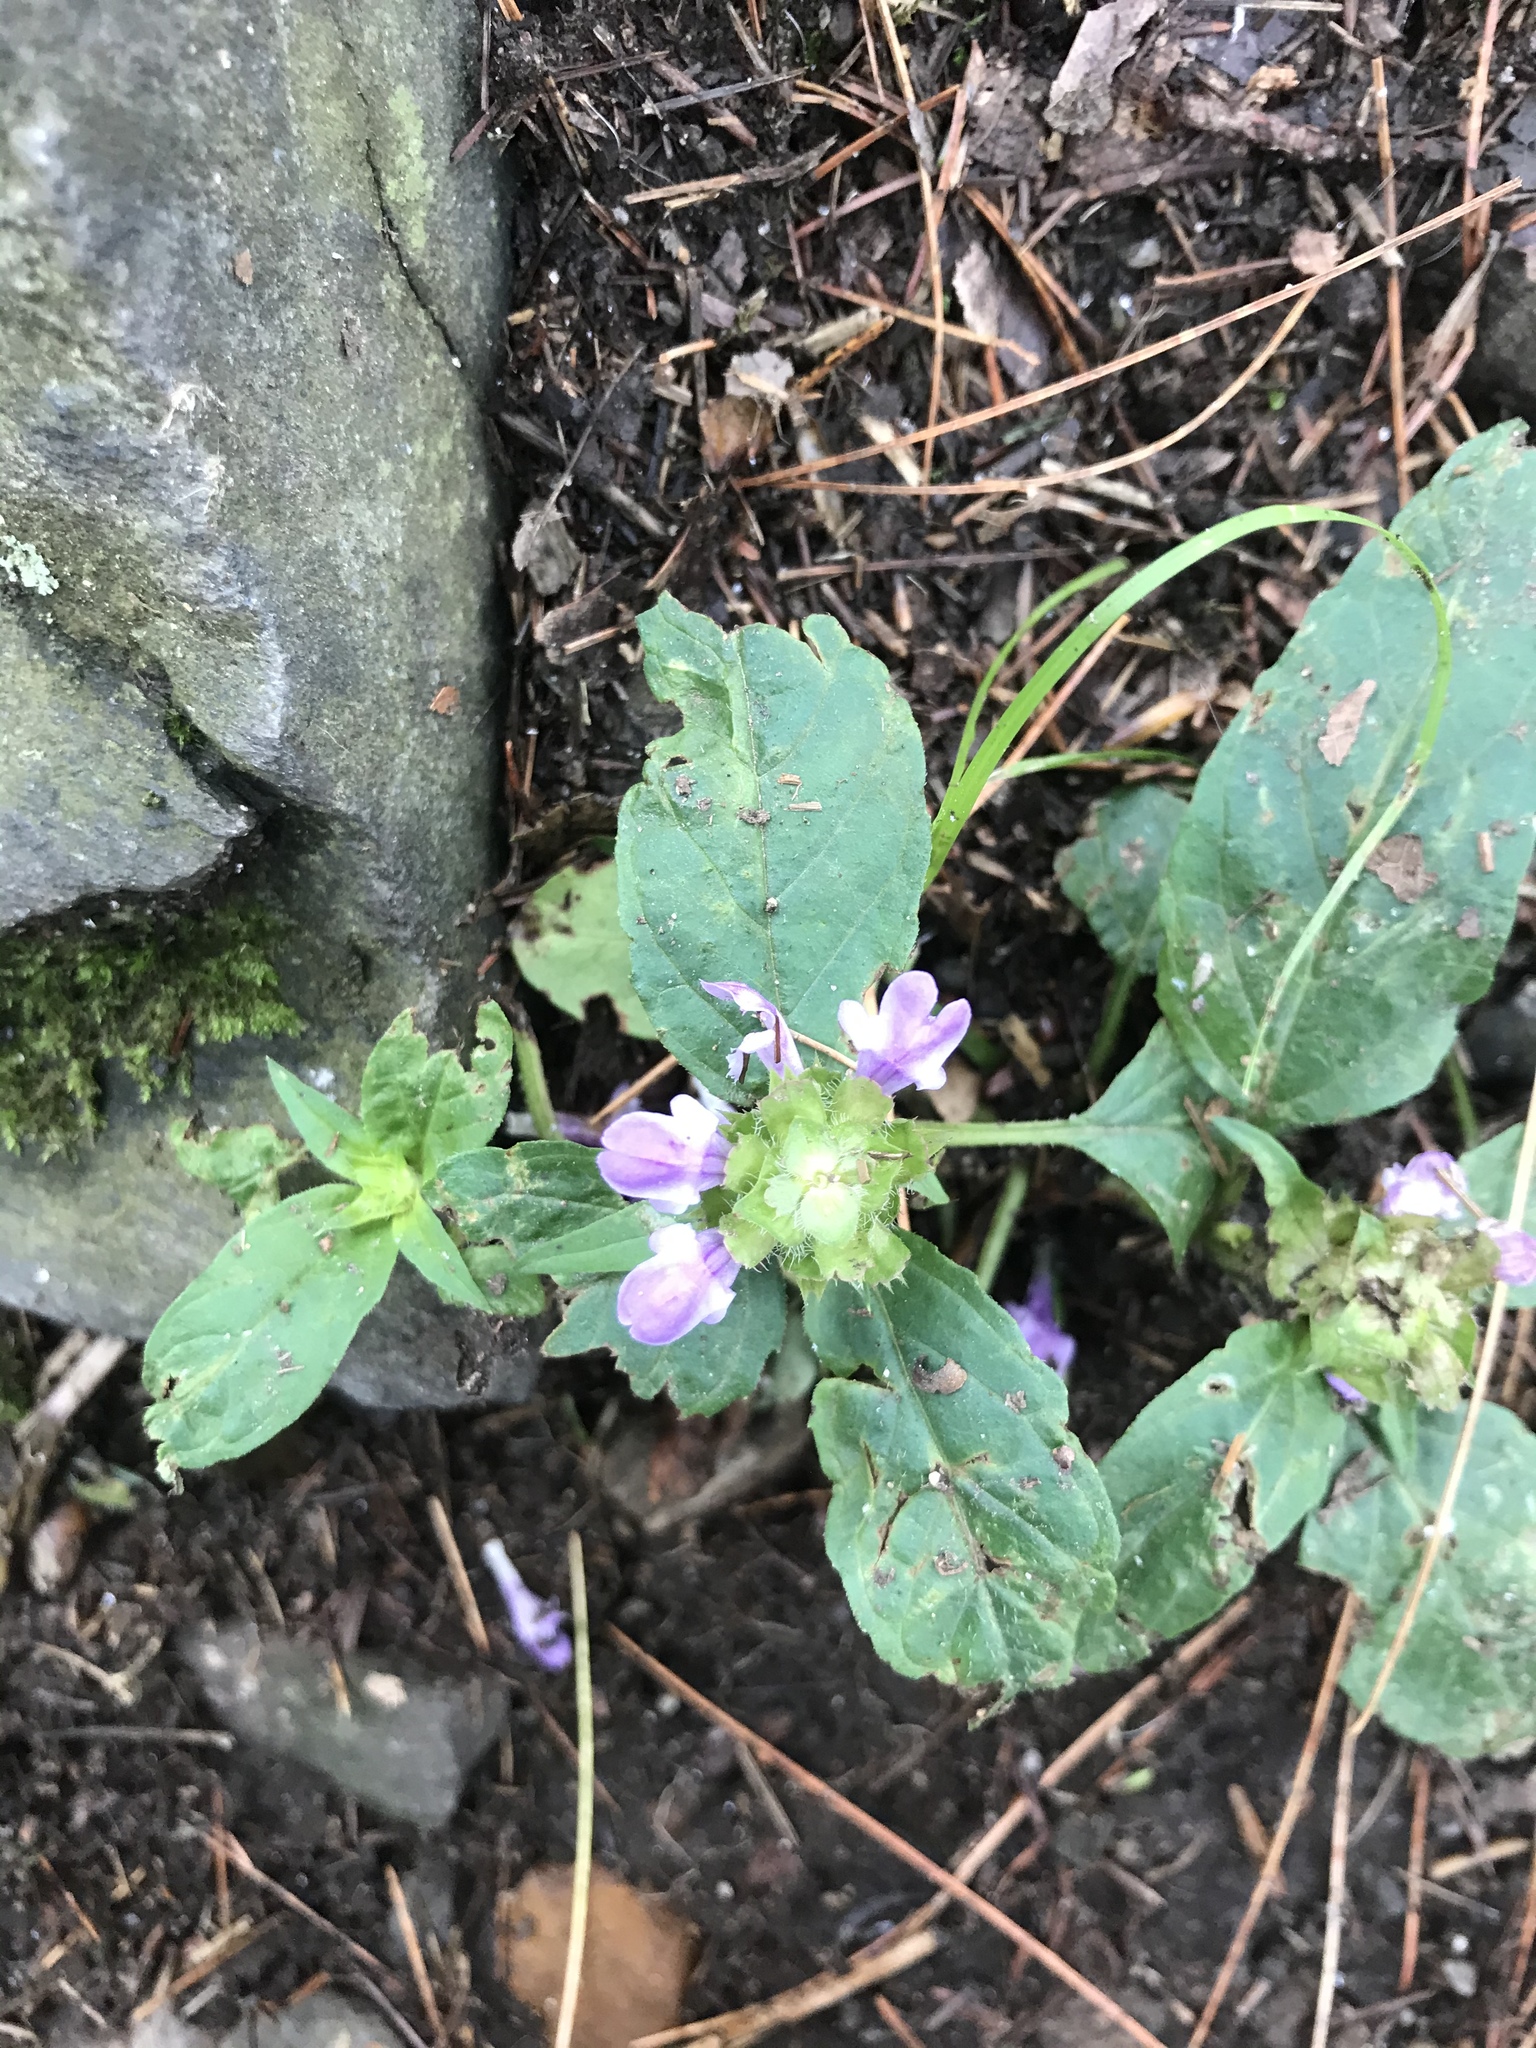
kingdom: Plantae
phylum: Tracheophyta
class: Magnoliopsida
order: Lamiales
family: Lamiaceae
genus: Prunella
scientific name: Prunella vulgaris
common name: Heal-all
